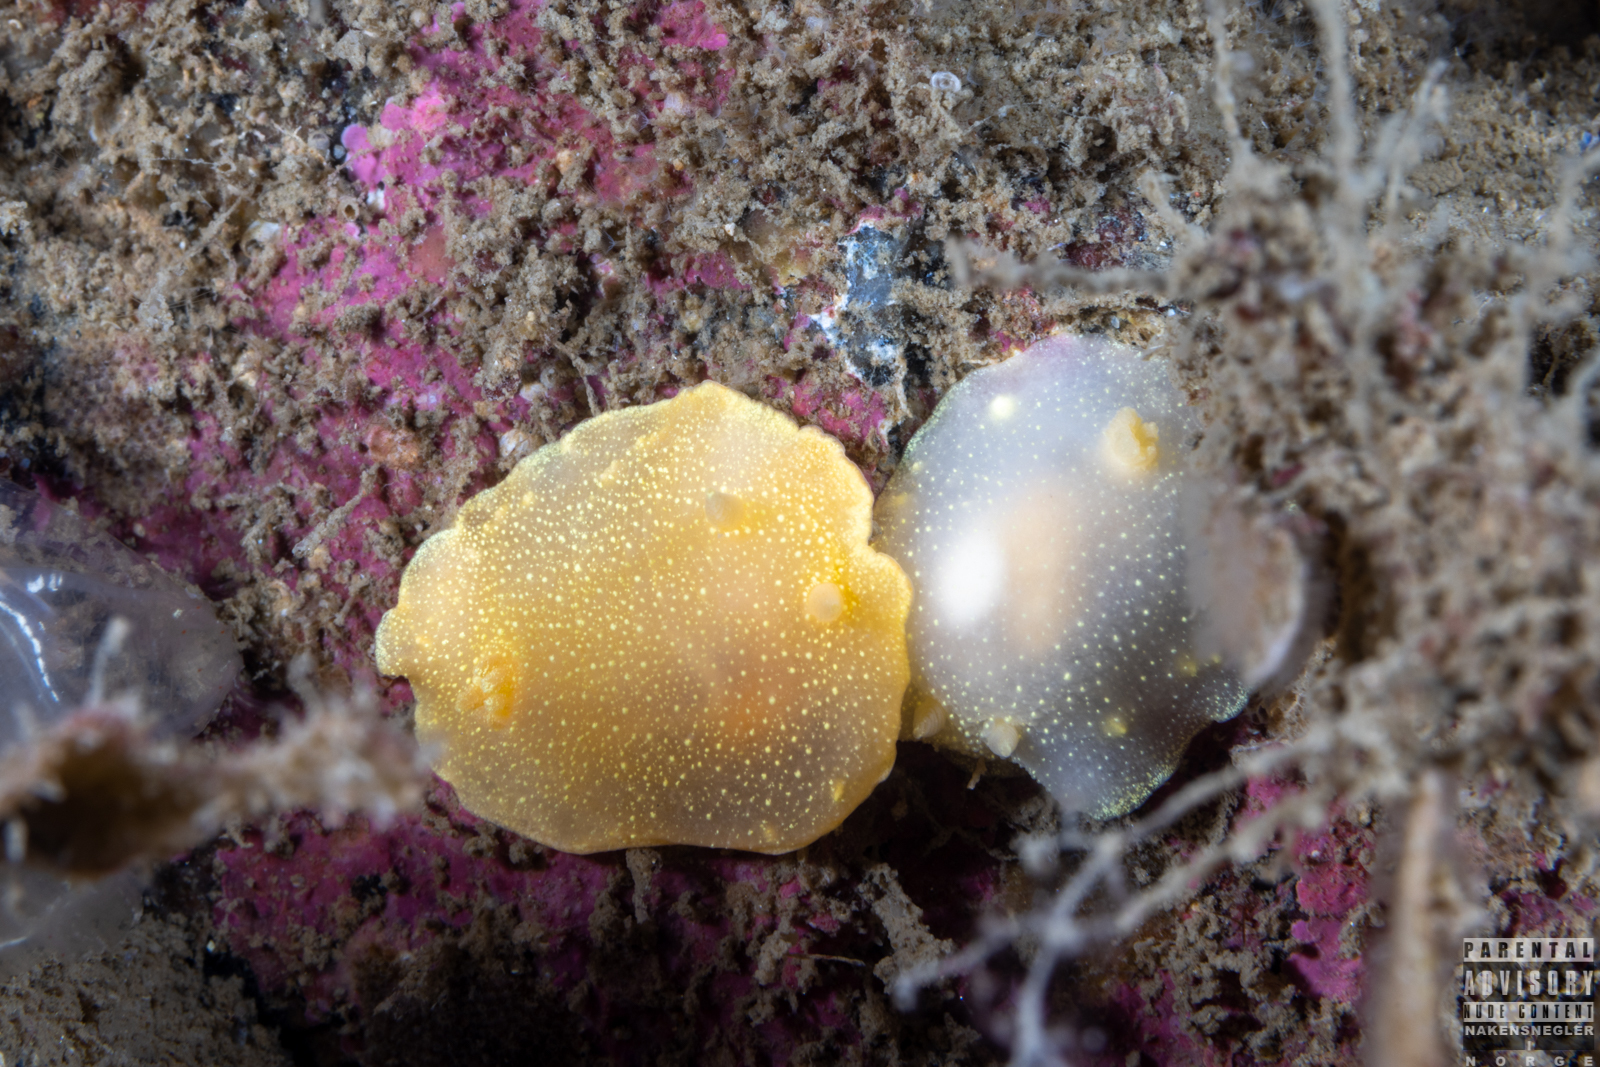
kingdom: Animalia
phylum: Mollusca
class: Gastropoda
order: Nudibranchia
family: Cadlinidae
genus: Cadlina
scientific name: Cadlina laevis
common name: White atlantic cadlina
